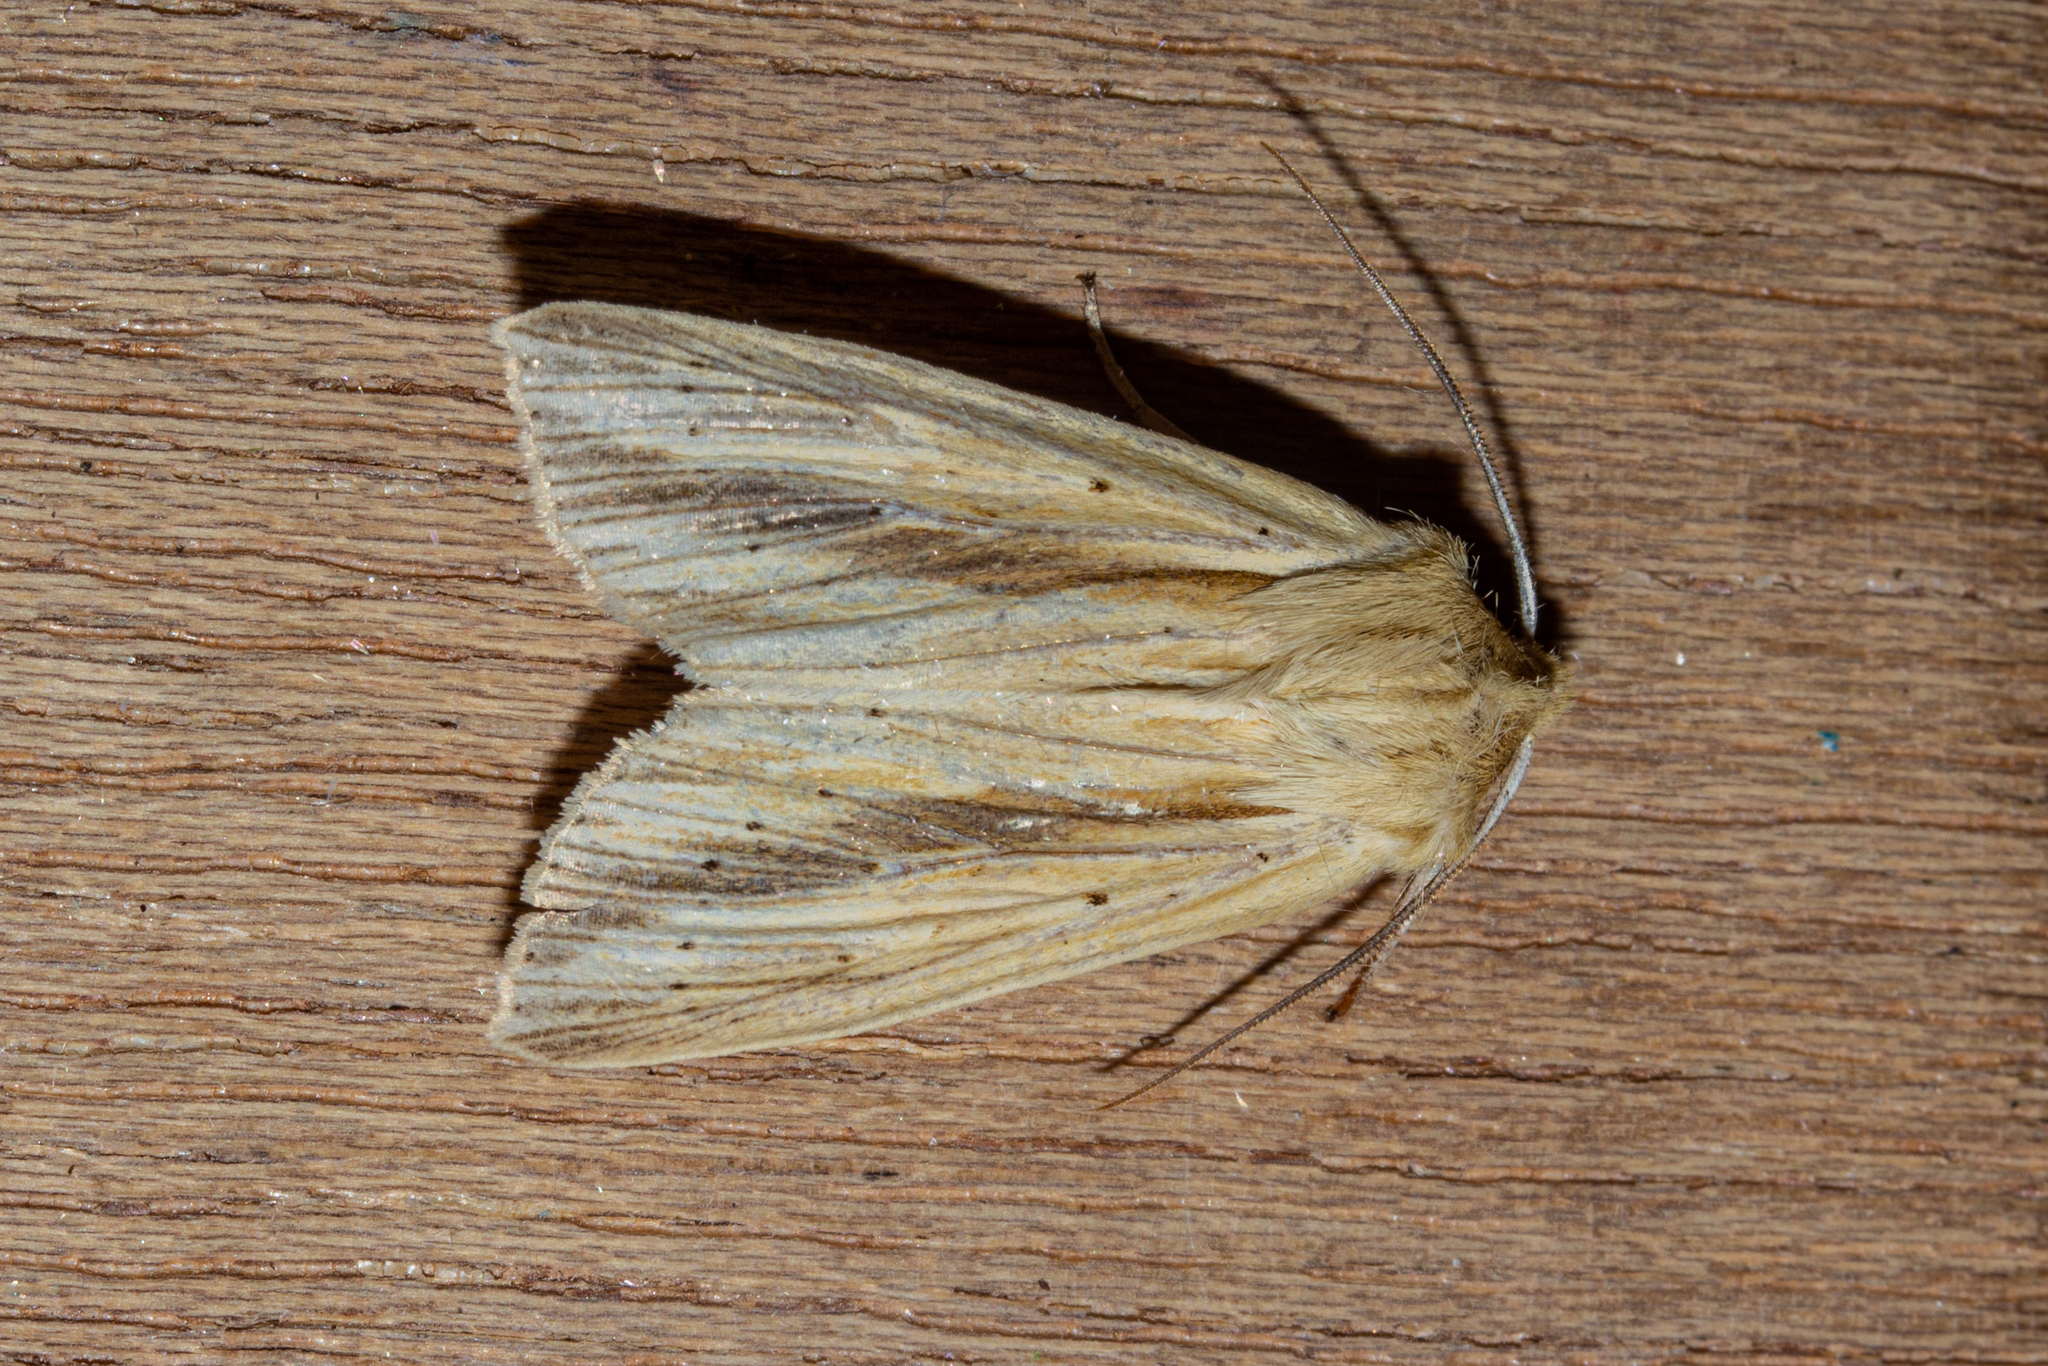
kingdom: Animalia
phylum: Arthropoda
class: Insecta
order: Lepidoptera
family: Noctuidae
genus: Ichneutica
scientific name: Ichneutica semivittata
